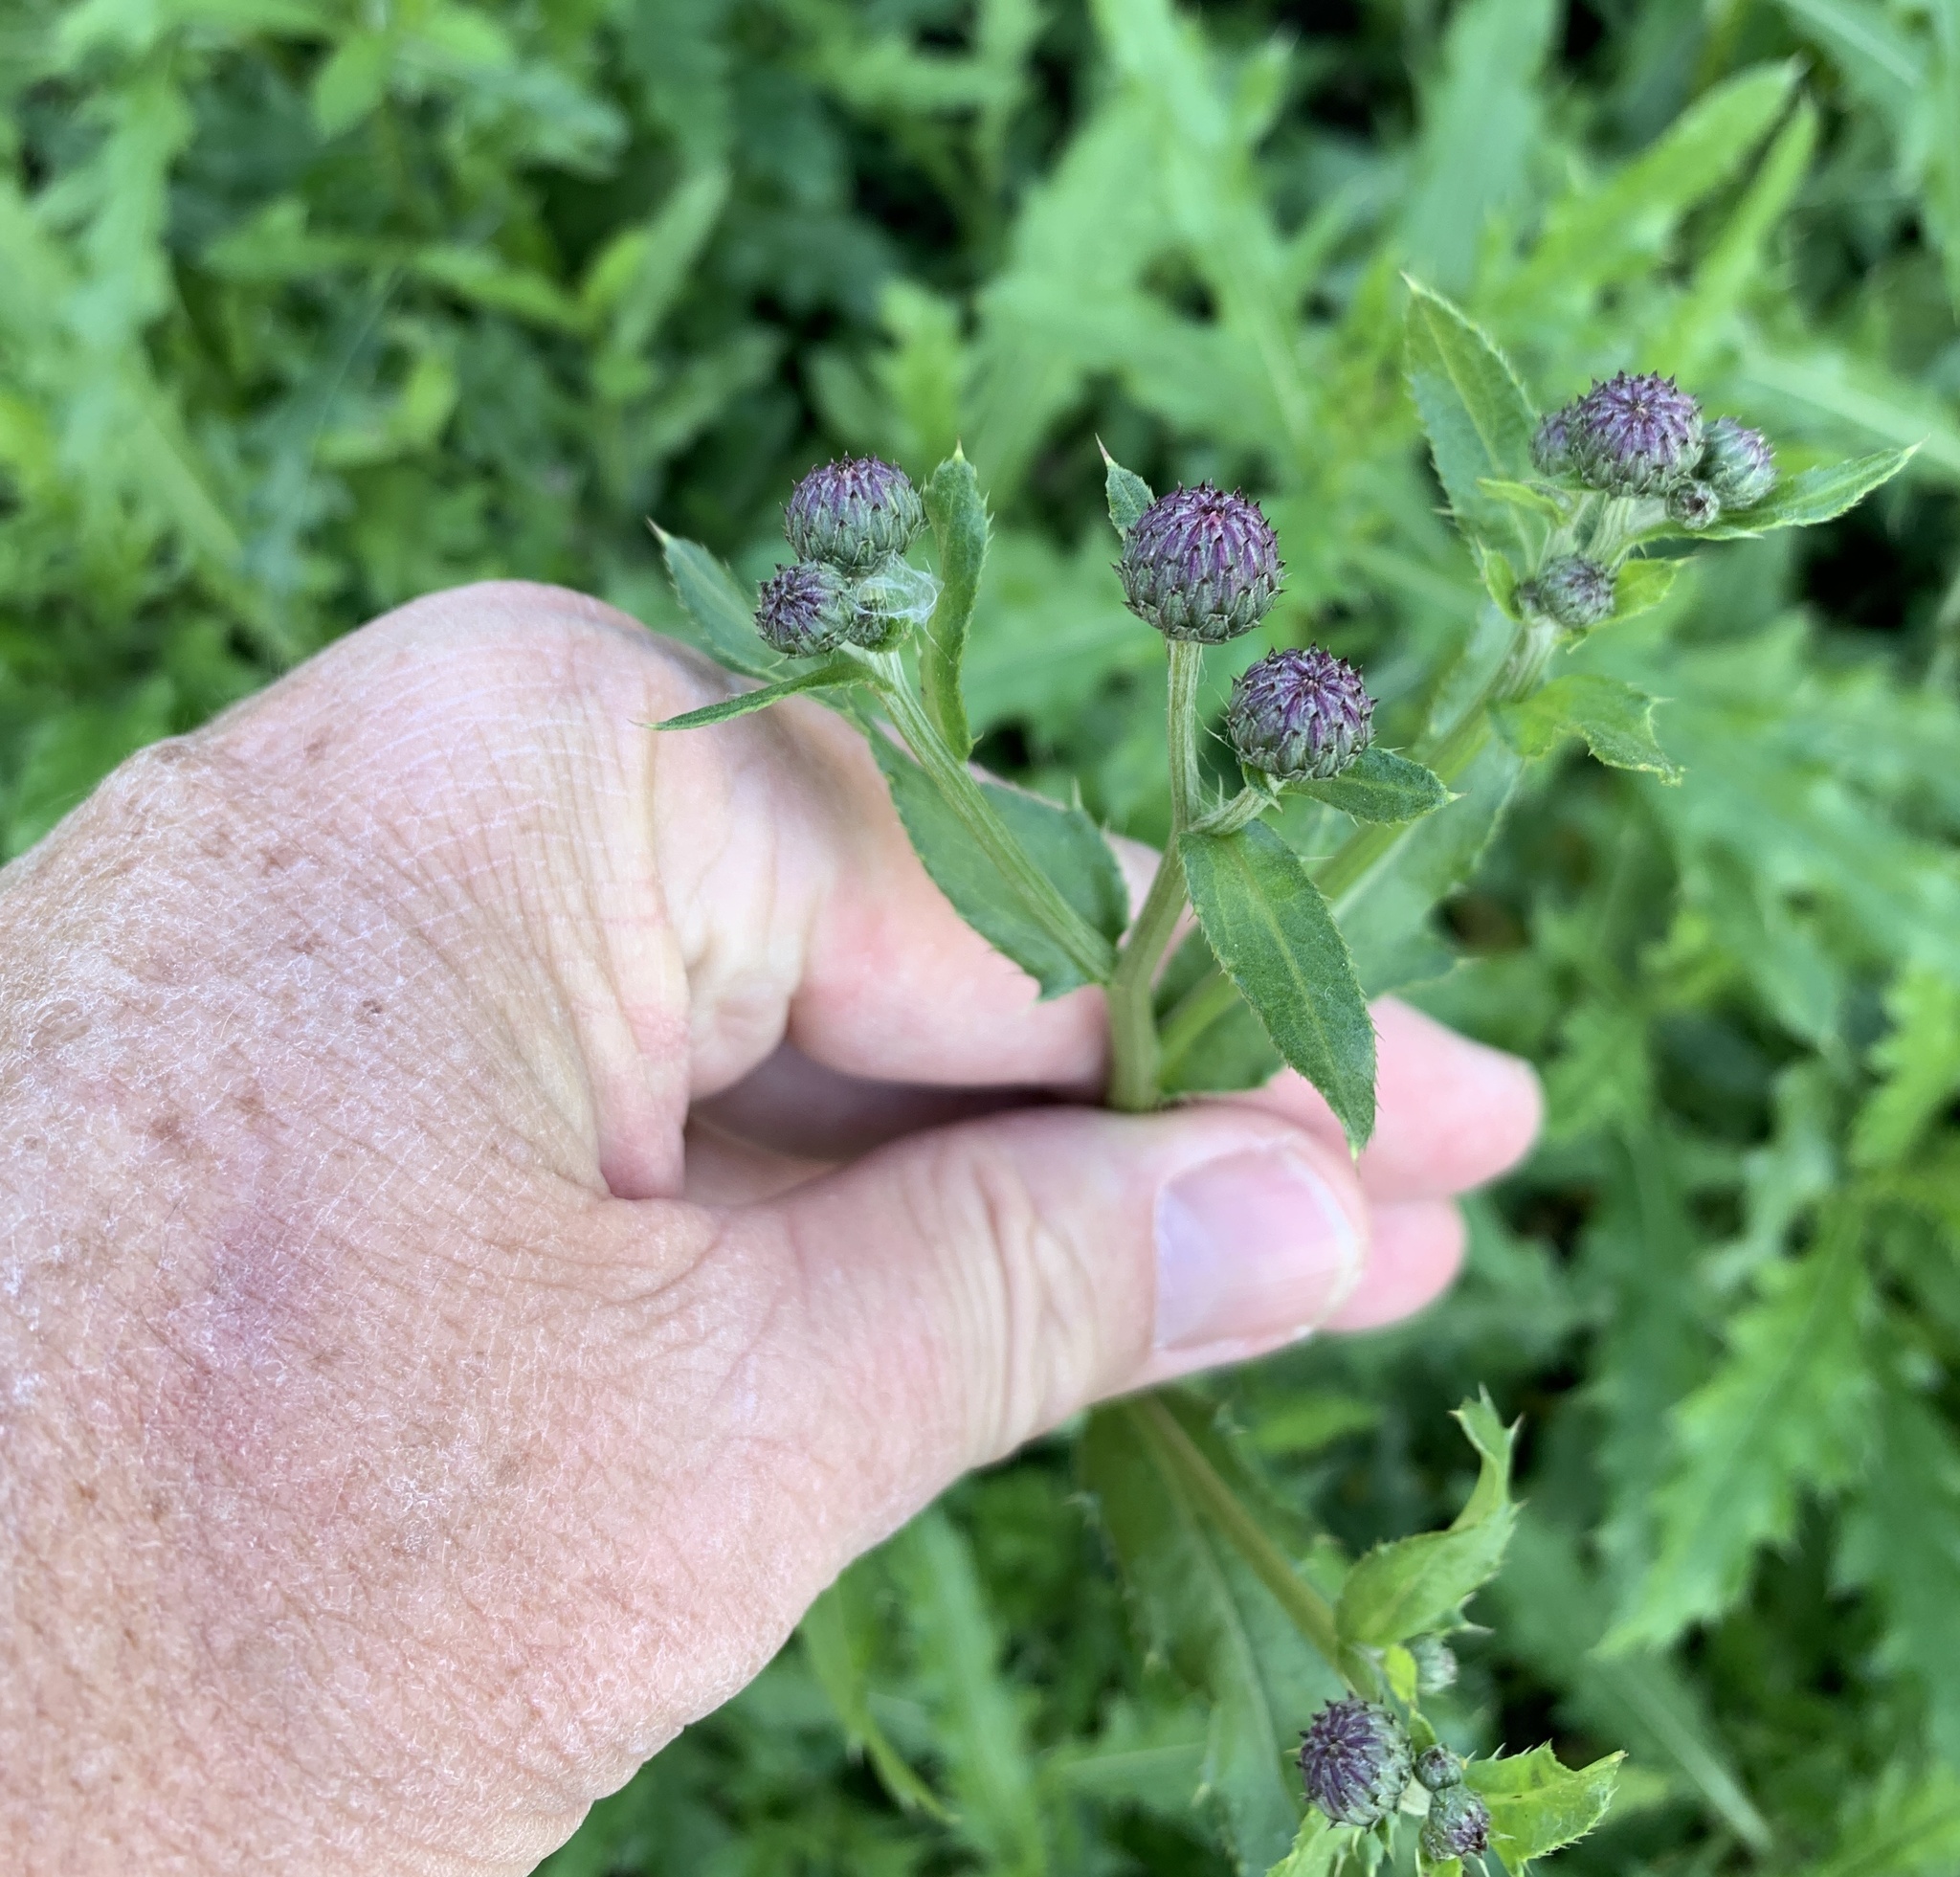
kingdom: Plantae
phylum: Tracheophyta
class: Magnoliopsida
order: Asterales
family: Asteraceae
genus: Cirsium
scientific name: Cirsium arvense
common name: Creeping thistle
